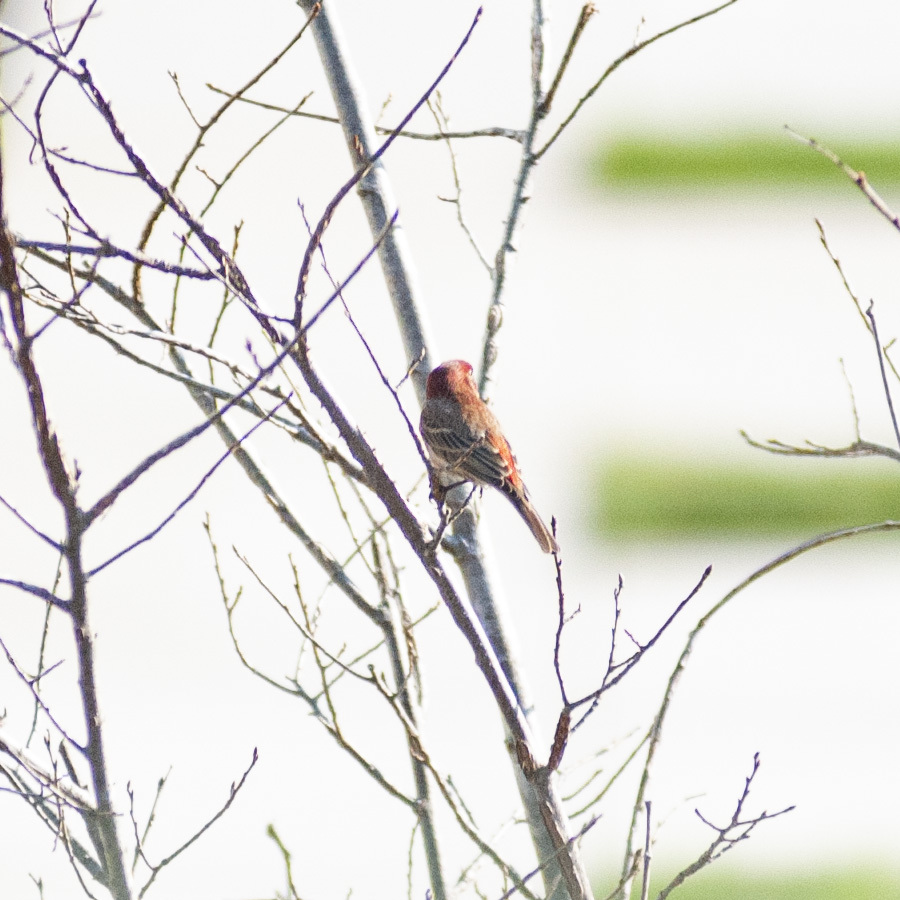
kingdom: Animalia
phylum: Chordata
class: Aves
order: Passeriformes
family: Fringillidae
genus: Haemorhous
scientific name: Haemorhous mexicanus
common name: House finch
